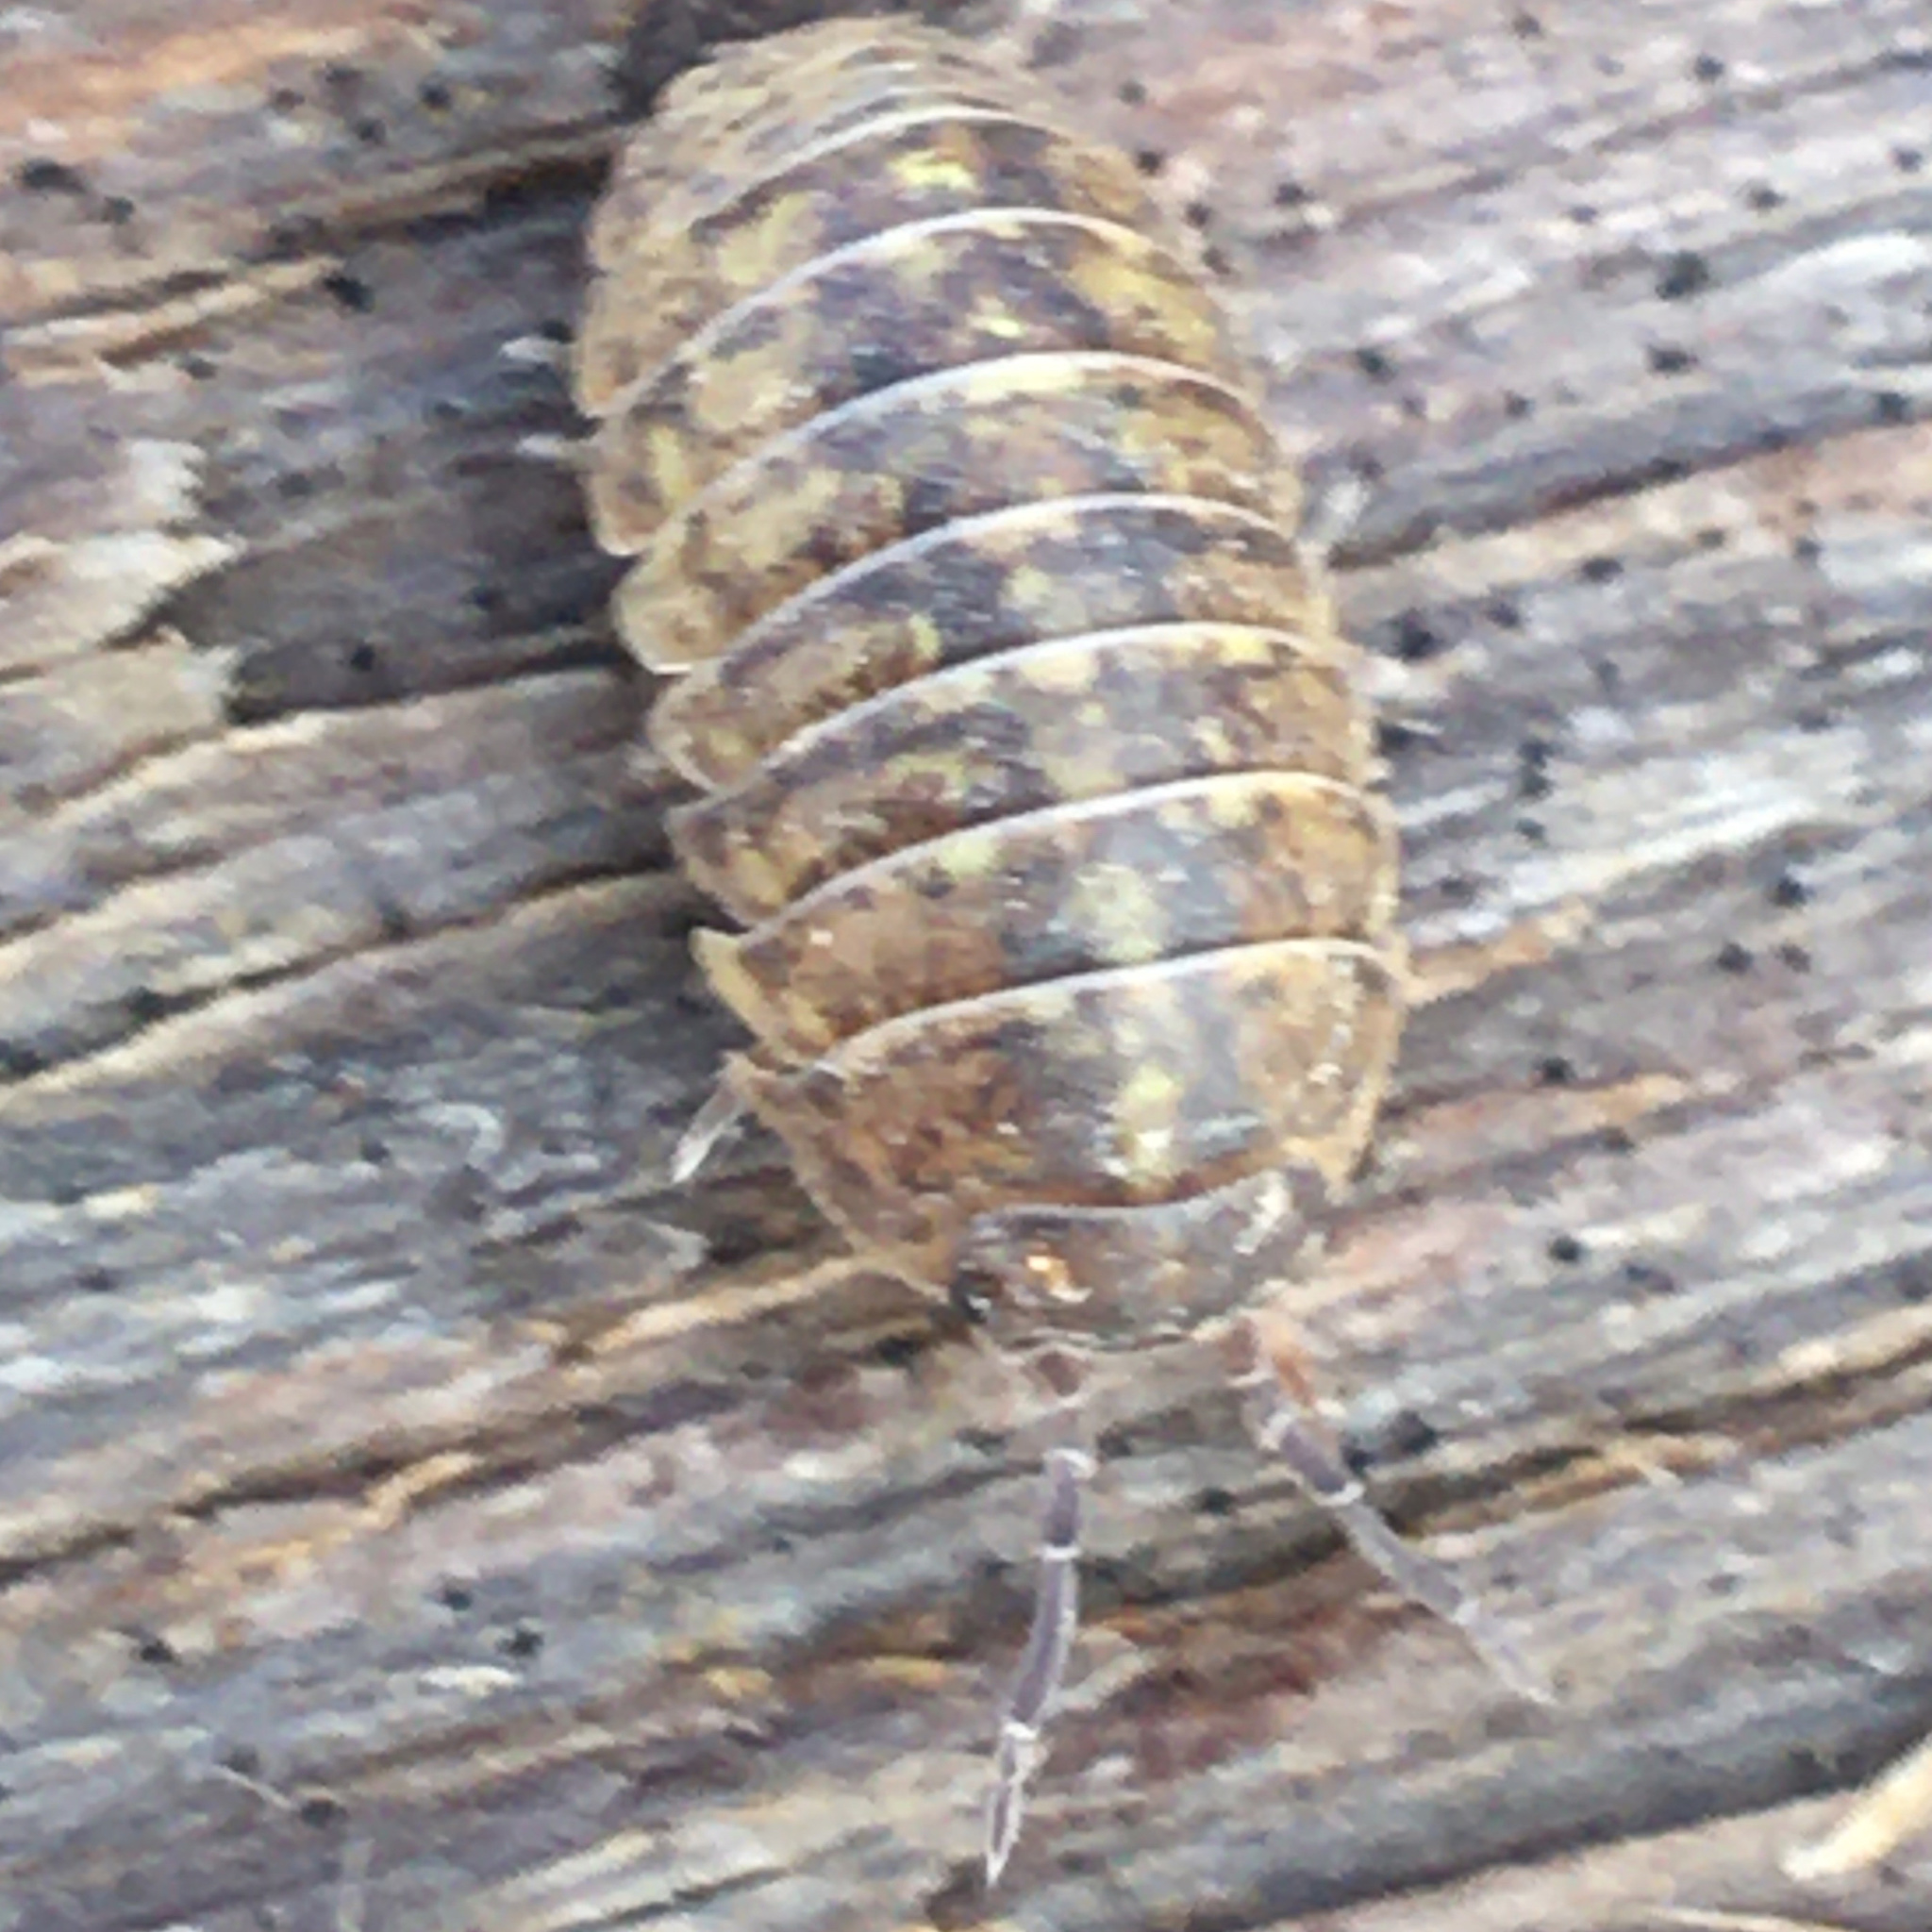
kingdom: Animalia
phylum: Arthropoda
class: Malacostraca
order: Isopoda
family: Armadillidiidae
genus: Armadillidium
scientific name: Armadillidium vulgare
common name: Common pill woodlouse
